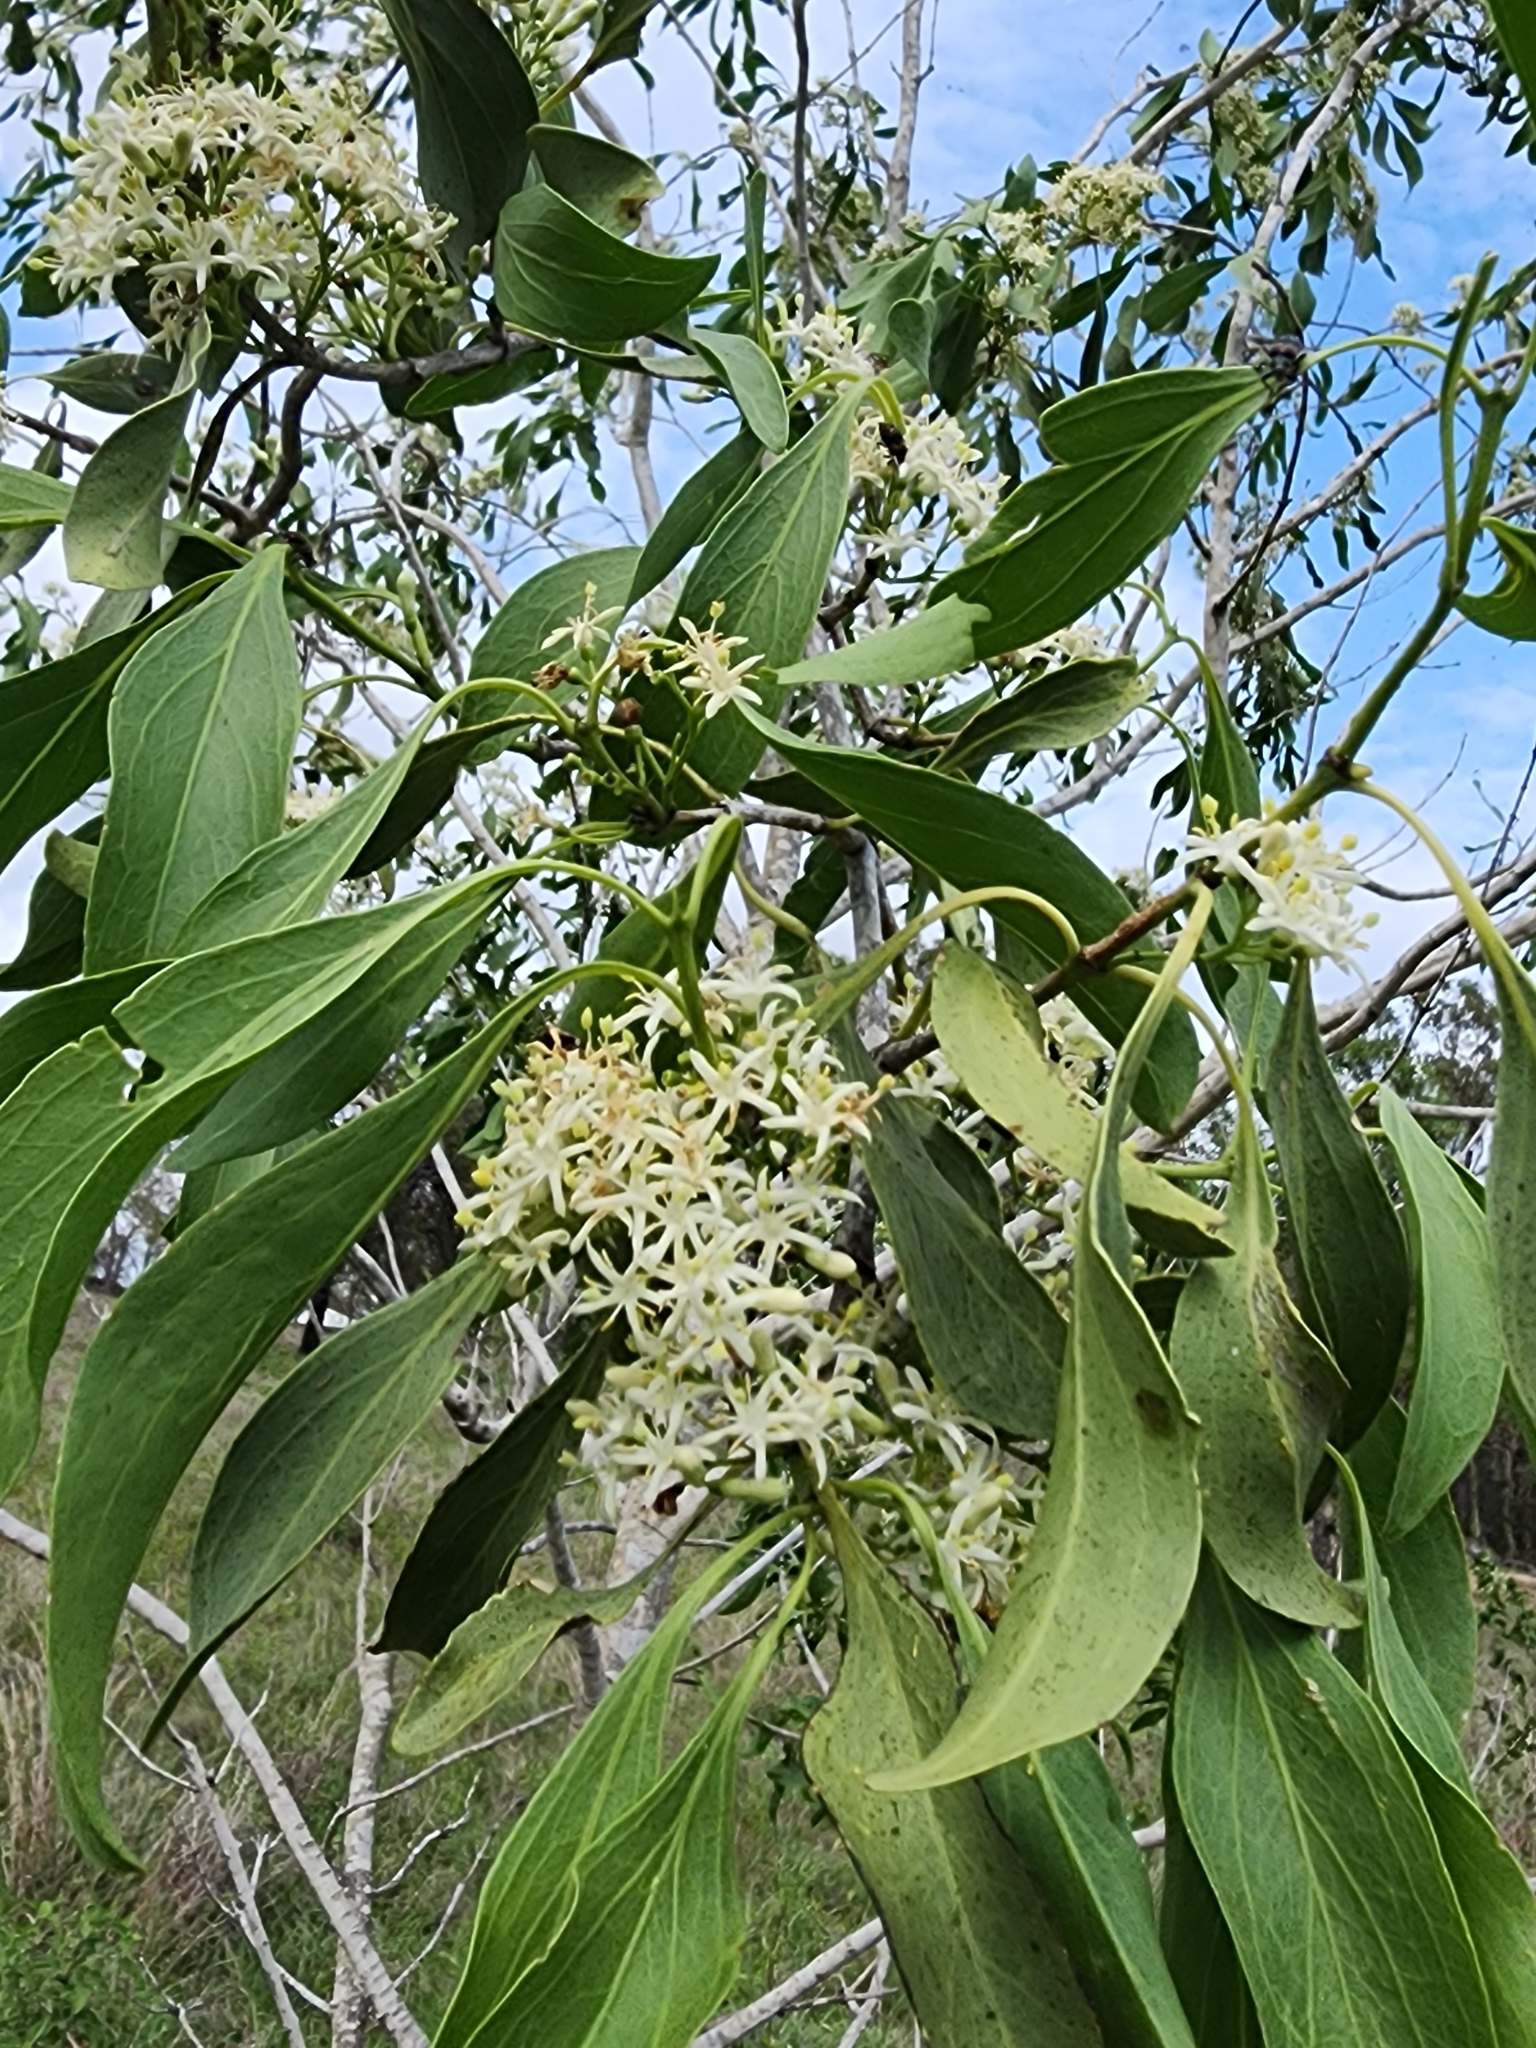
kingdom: Plantae
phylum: Tracheophyta
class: Magnoliopsida
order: Gentianales
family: Rubiaceae
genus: Psydrax
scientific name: Psydrax longipes
